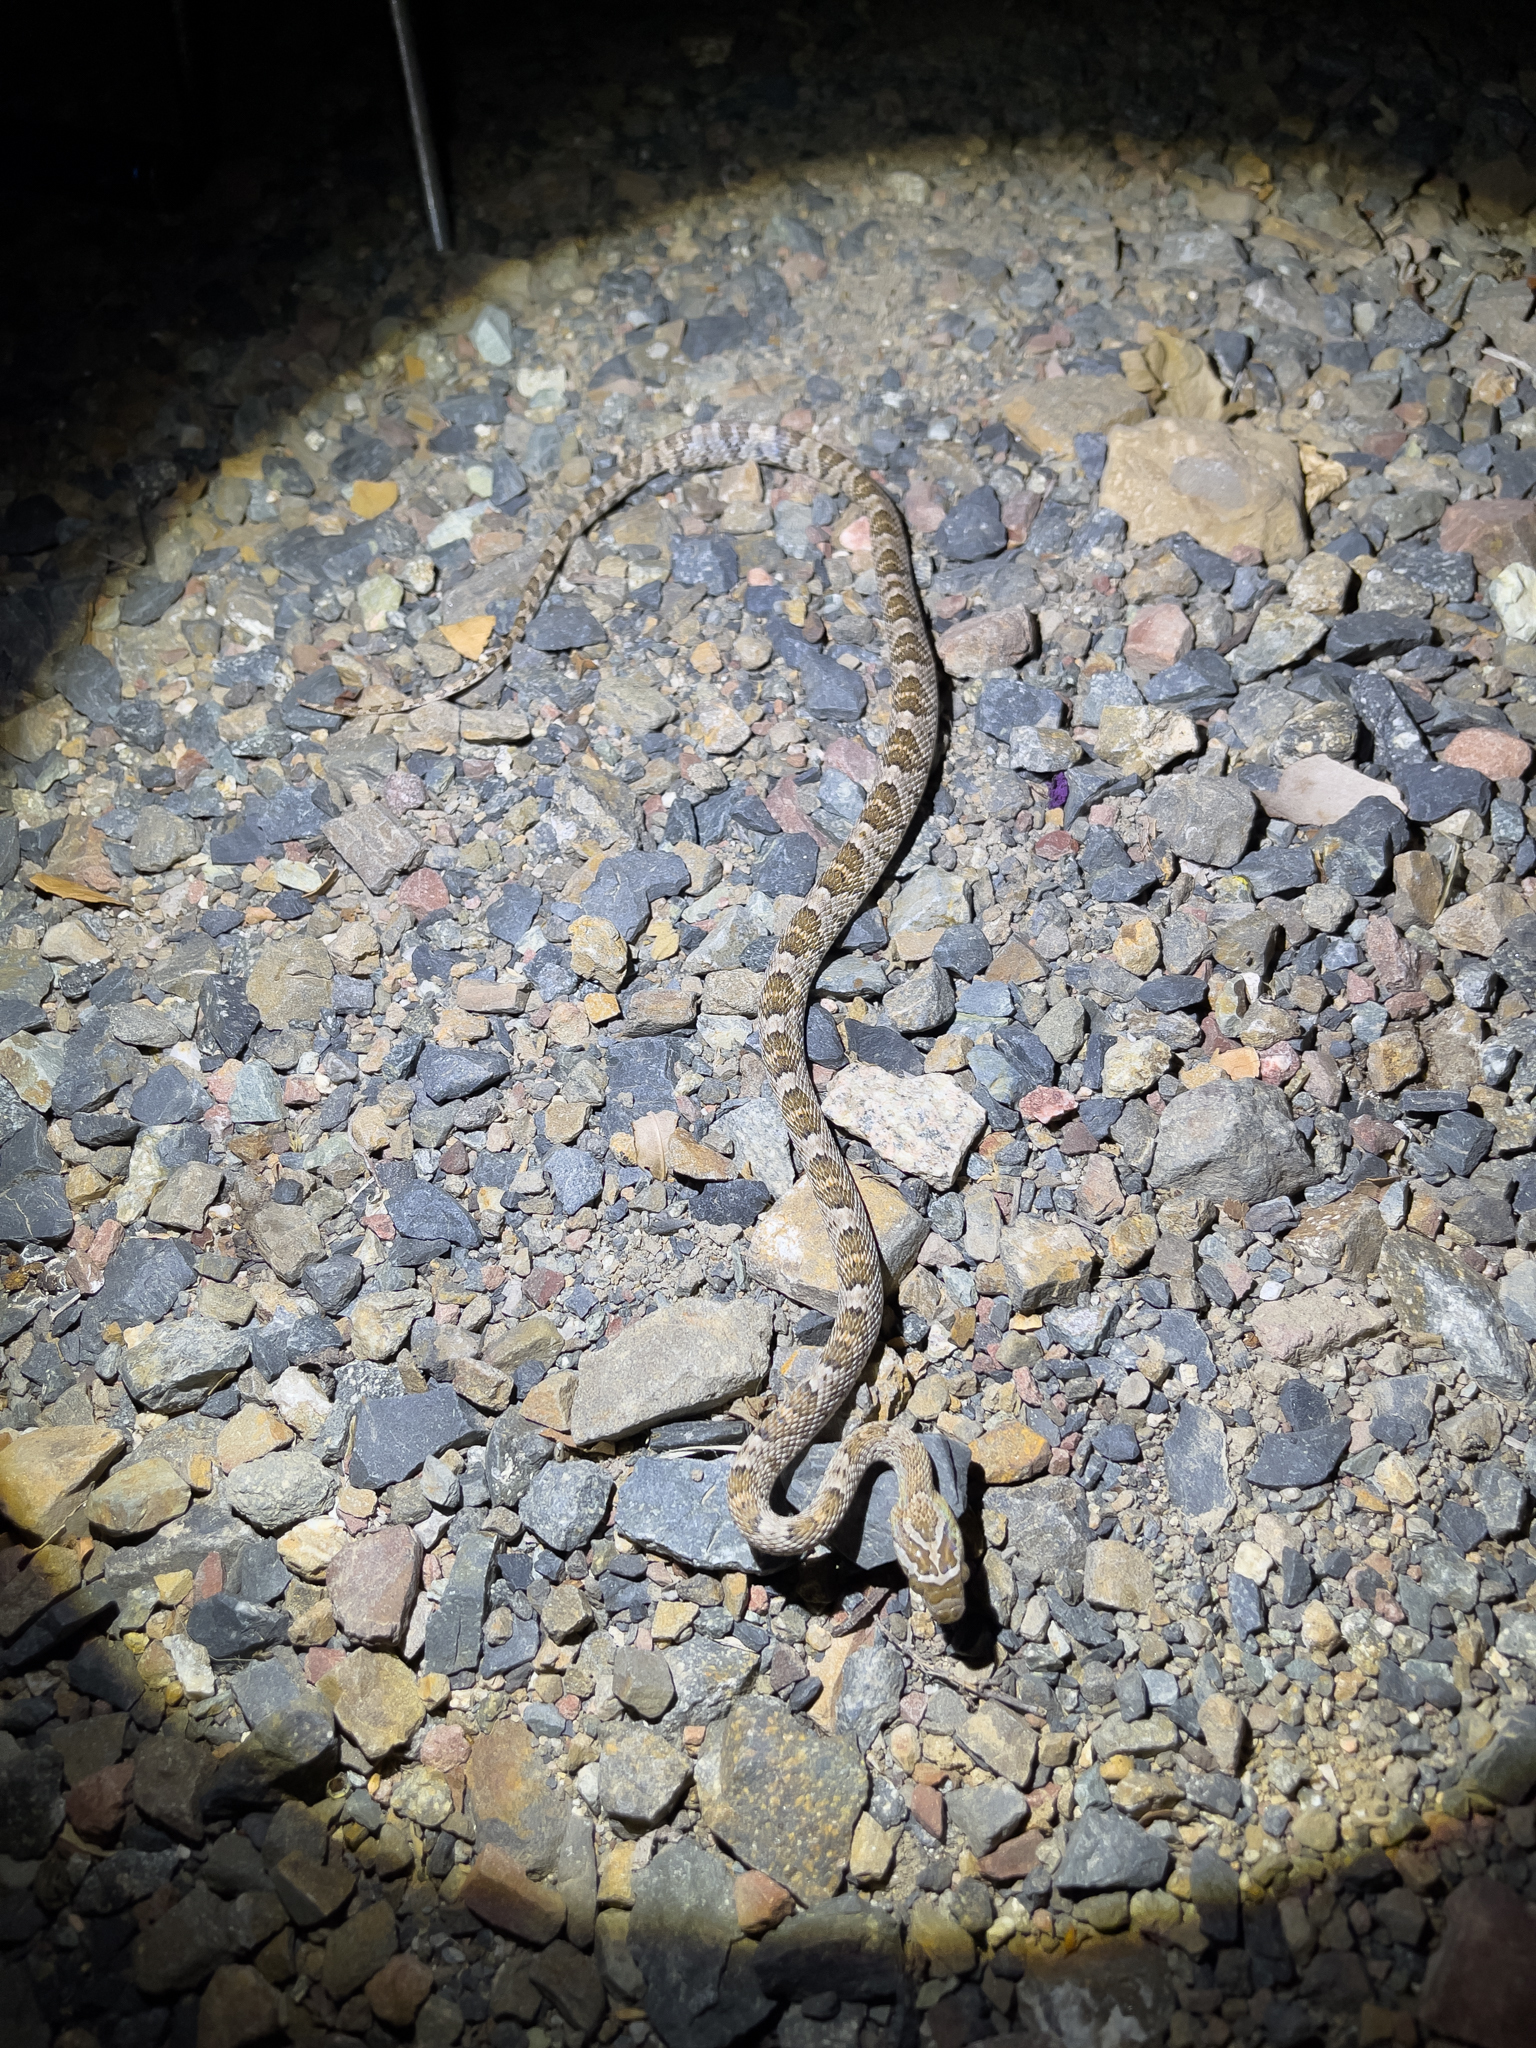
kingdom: Animalia
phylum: Chordata
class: Squamata
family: Colubridae
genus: Trimorphodon
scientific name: Trimorphodon lyrophanes
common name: Baja california lyre snake
